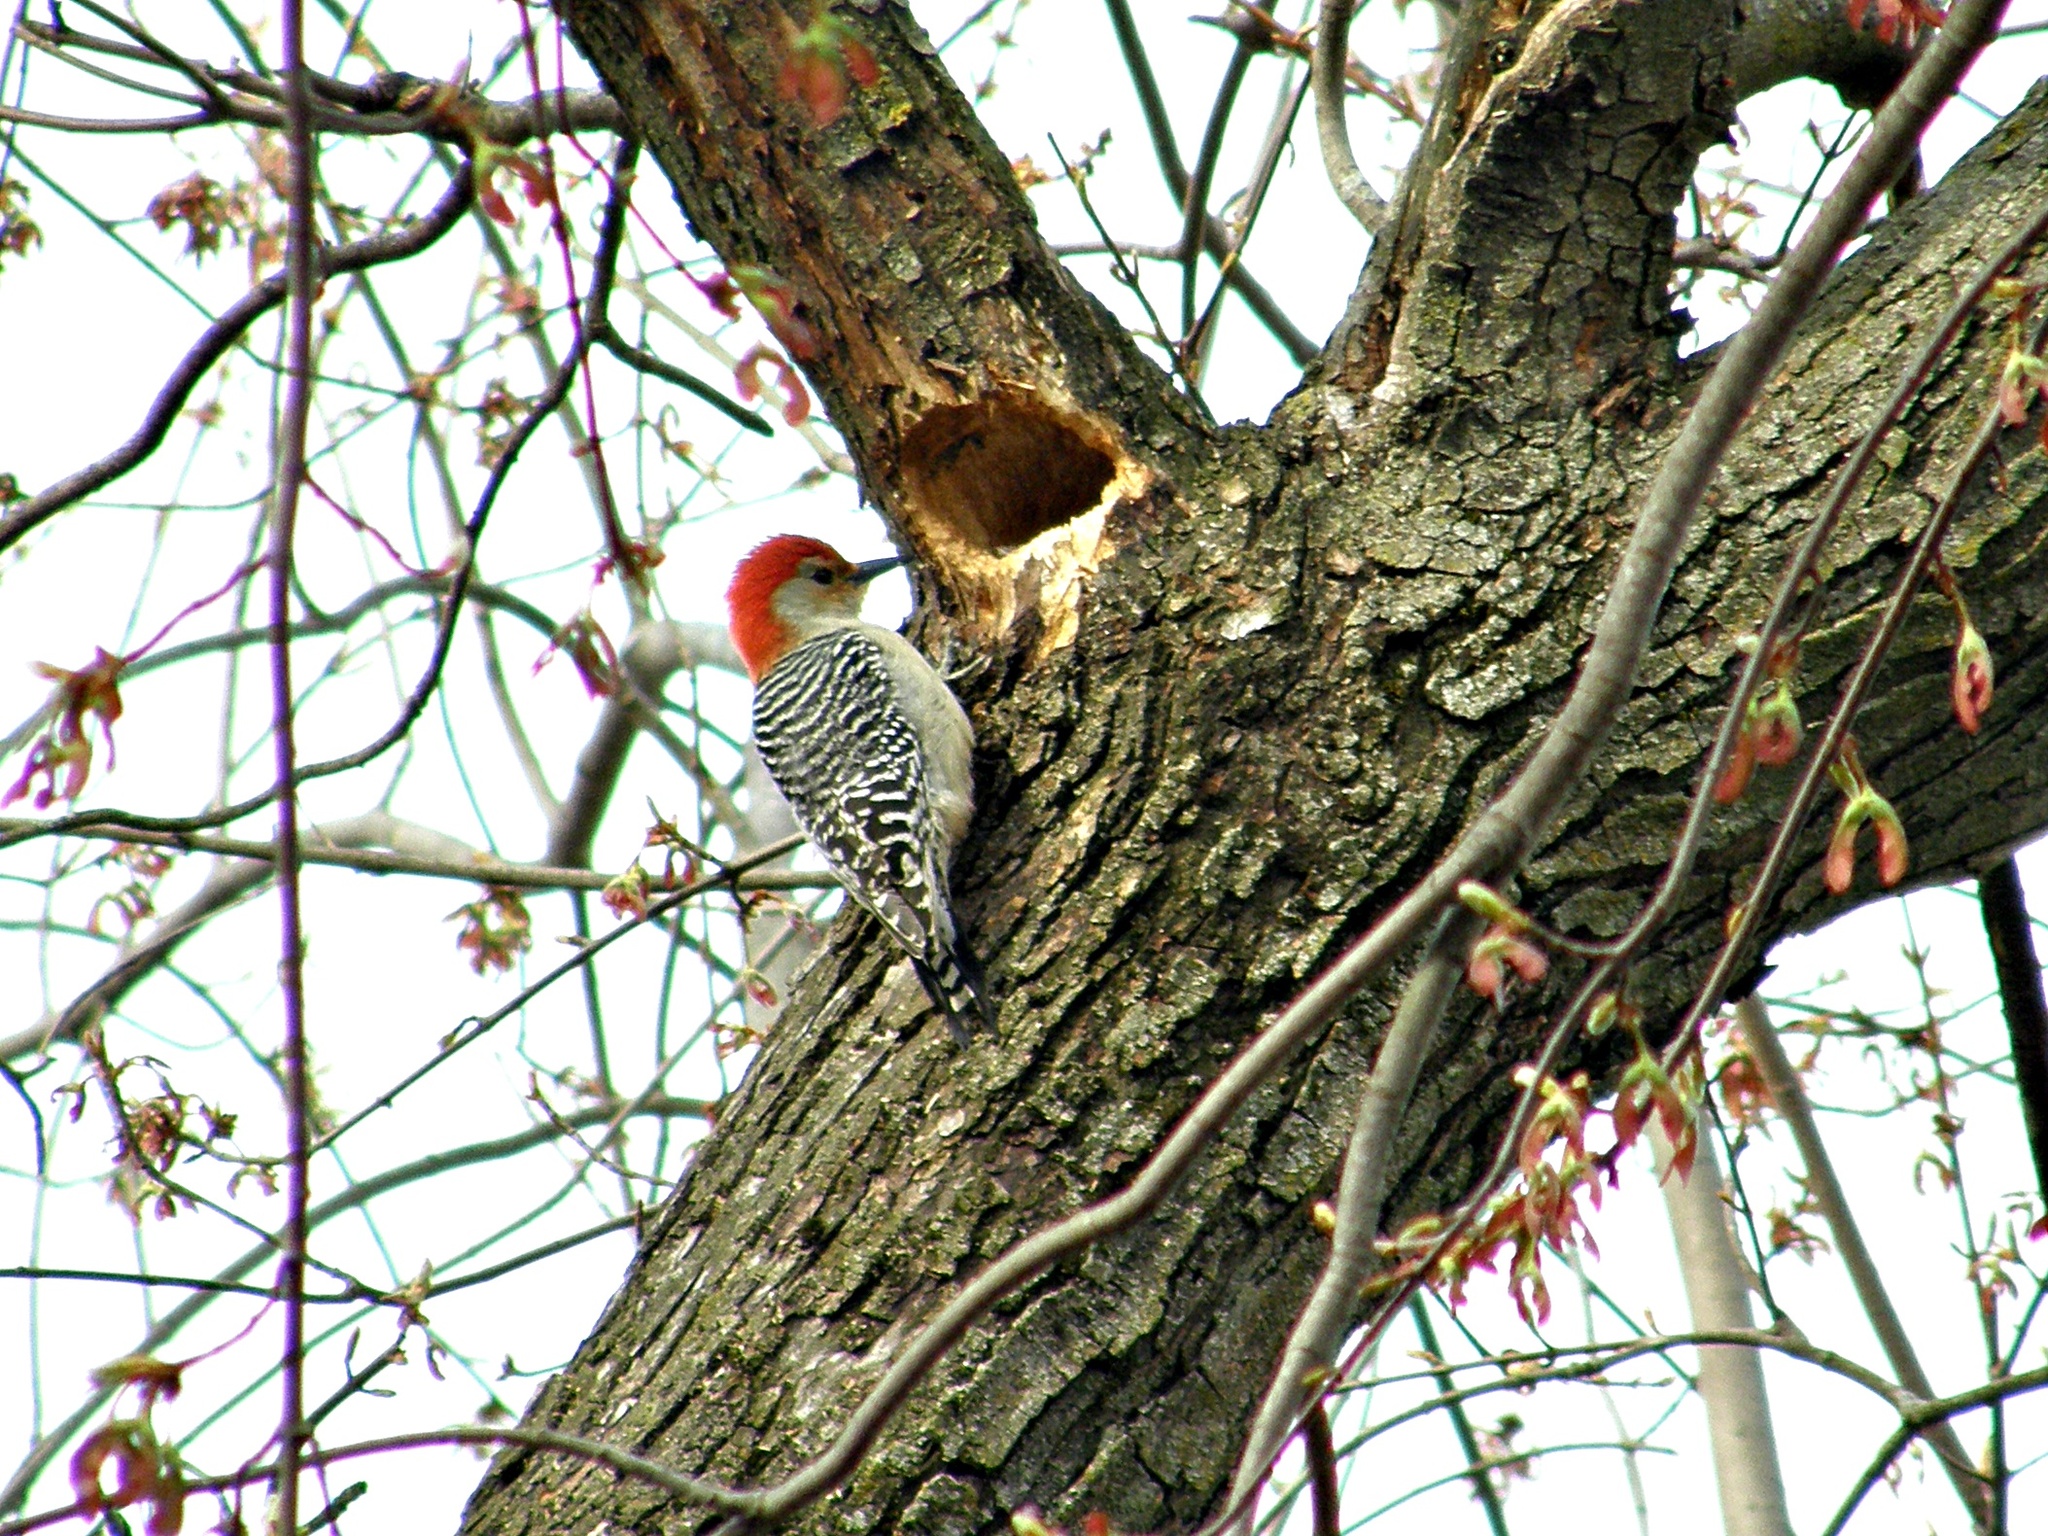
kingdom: Animalia
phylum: Chordata
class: Aves
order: Piciformes
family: Picidae
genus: Melanerpes
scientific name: Melanerpes carolinus
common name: Red-bellied woodpecker
